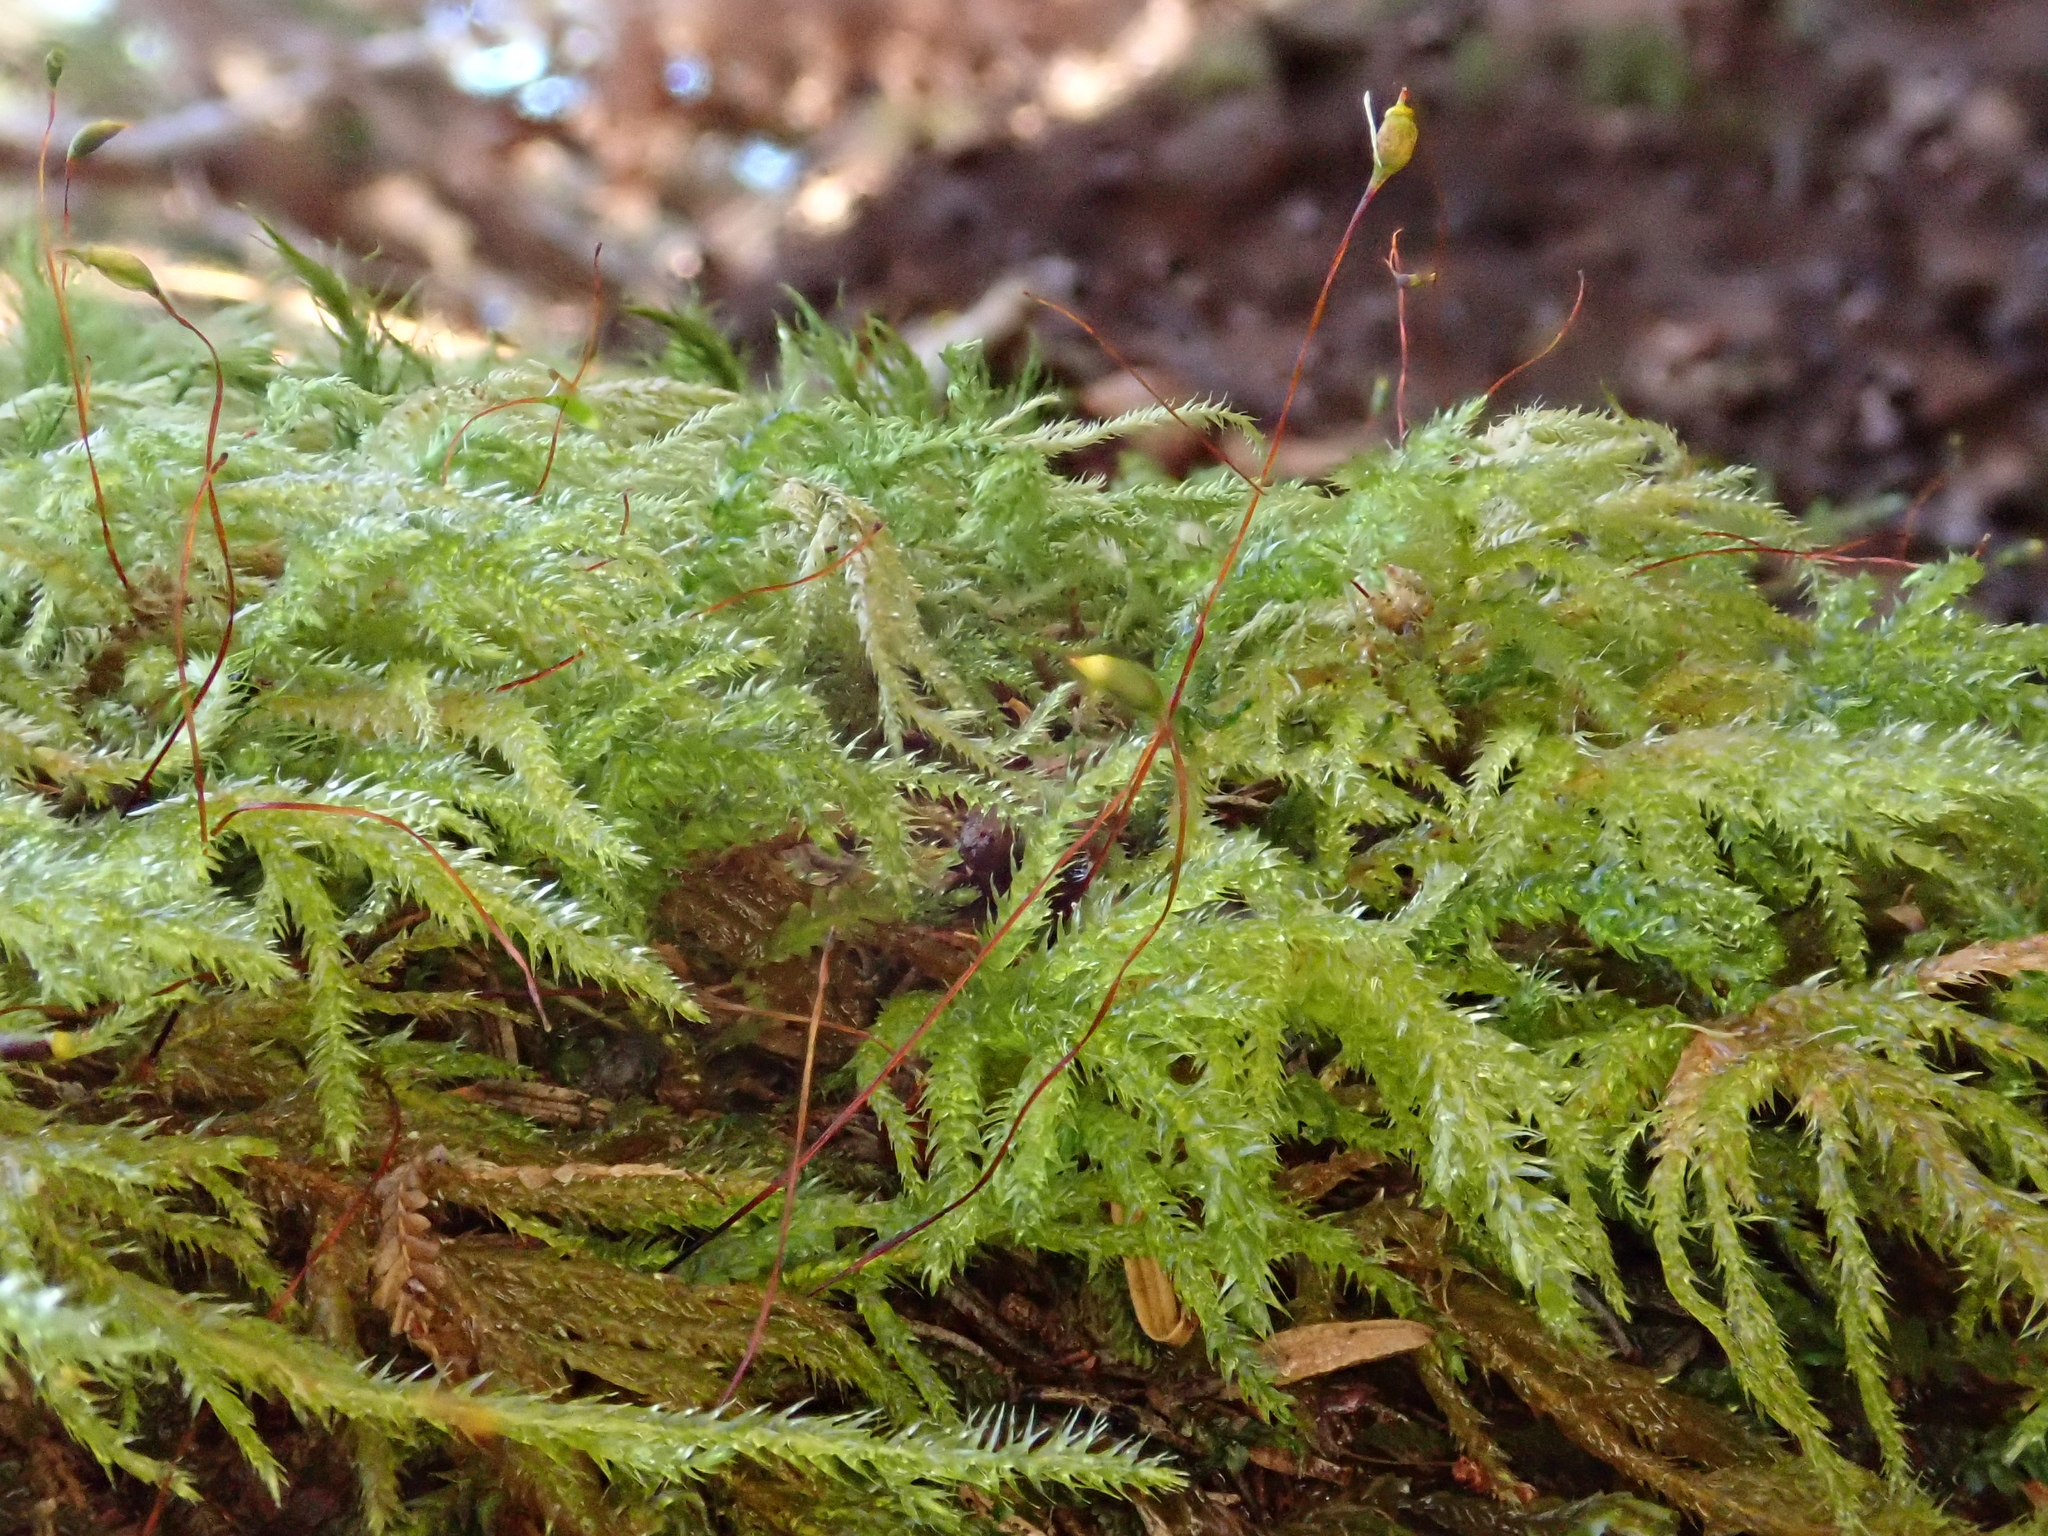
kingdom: Plantae
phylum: Bryophyta
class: Bryopsida
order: Hypnales
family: Lembophyllaceae
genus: Pseudisothecium
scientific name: Pseudisothecium myosuroides
